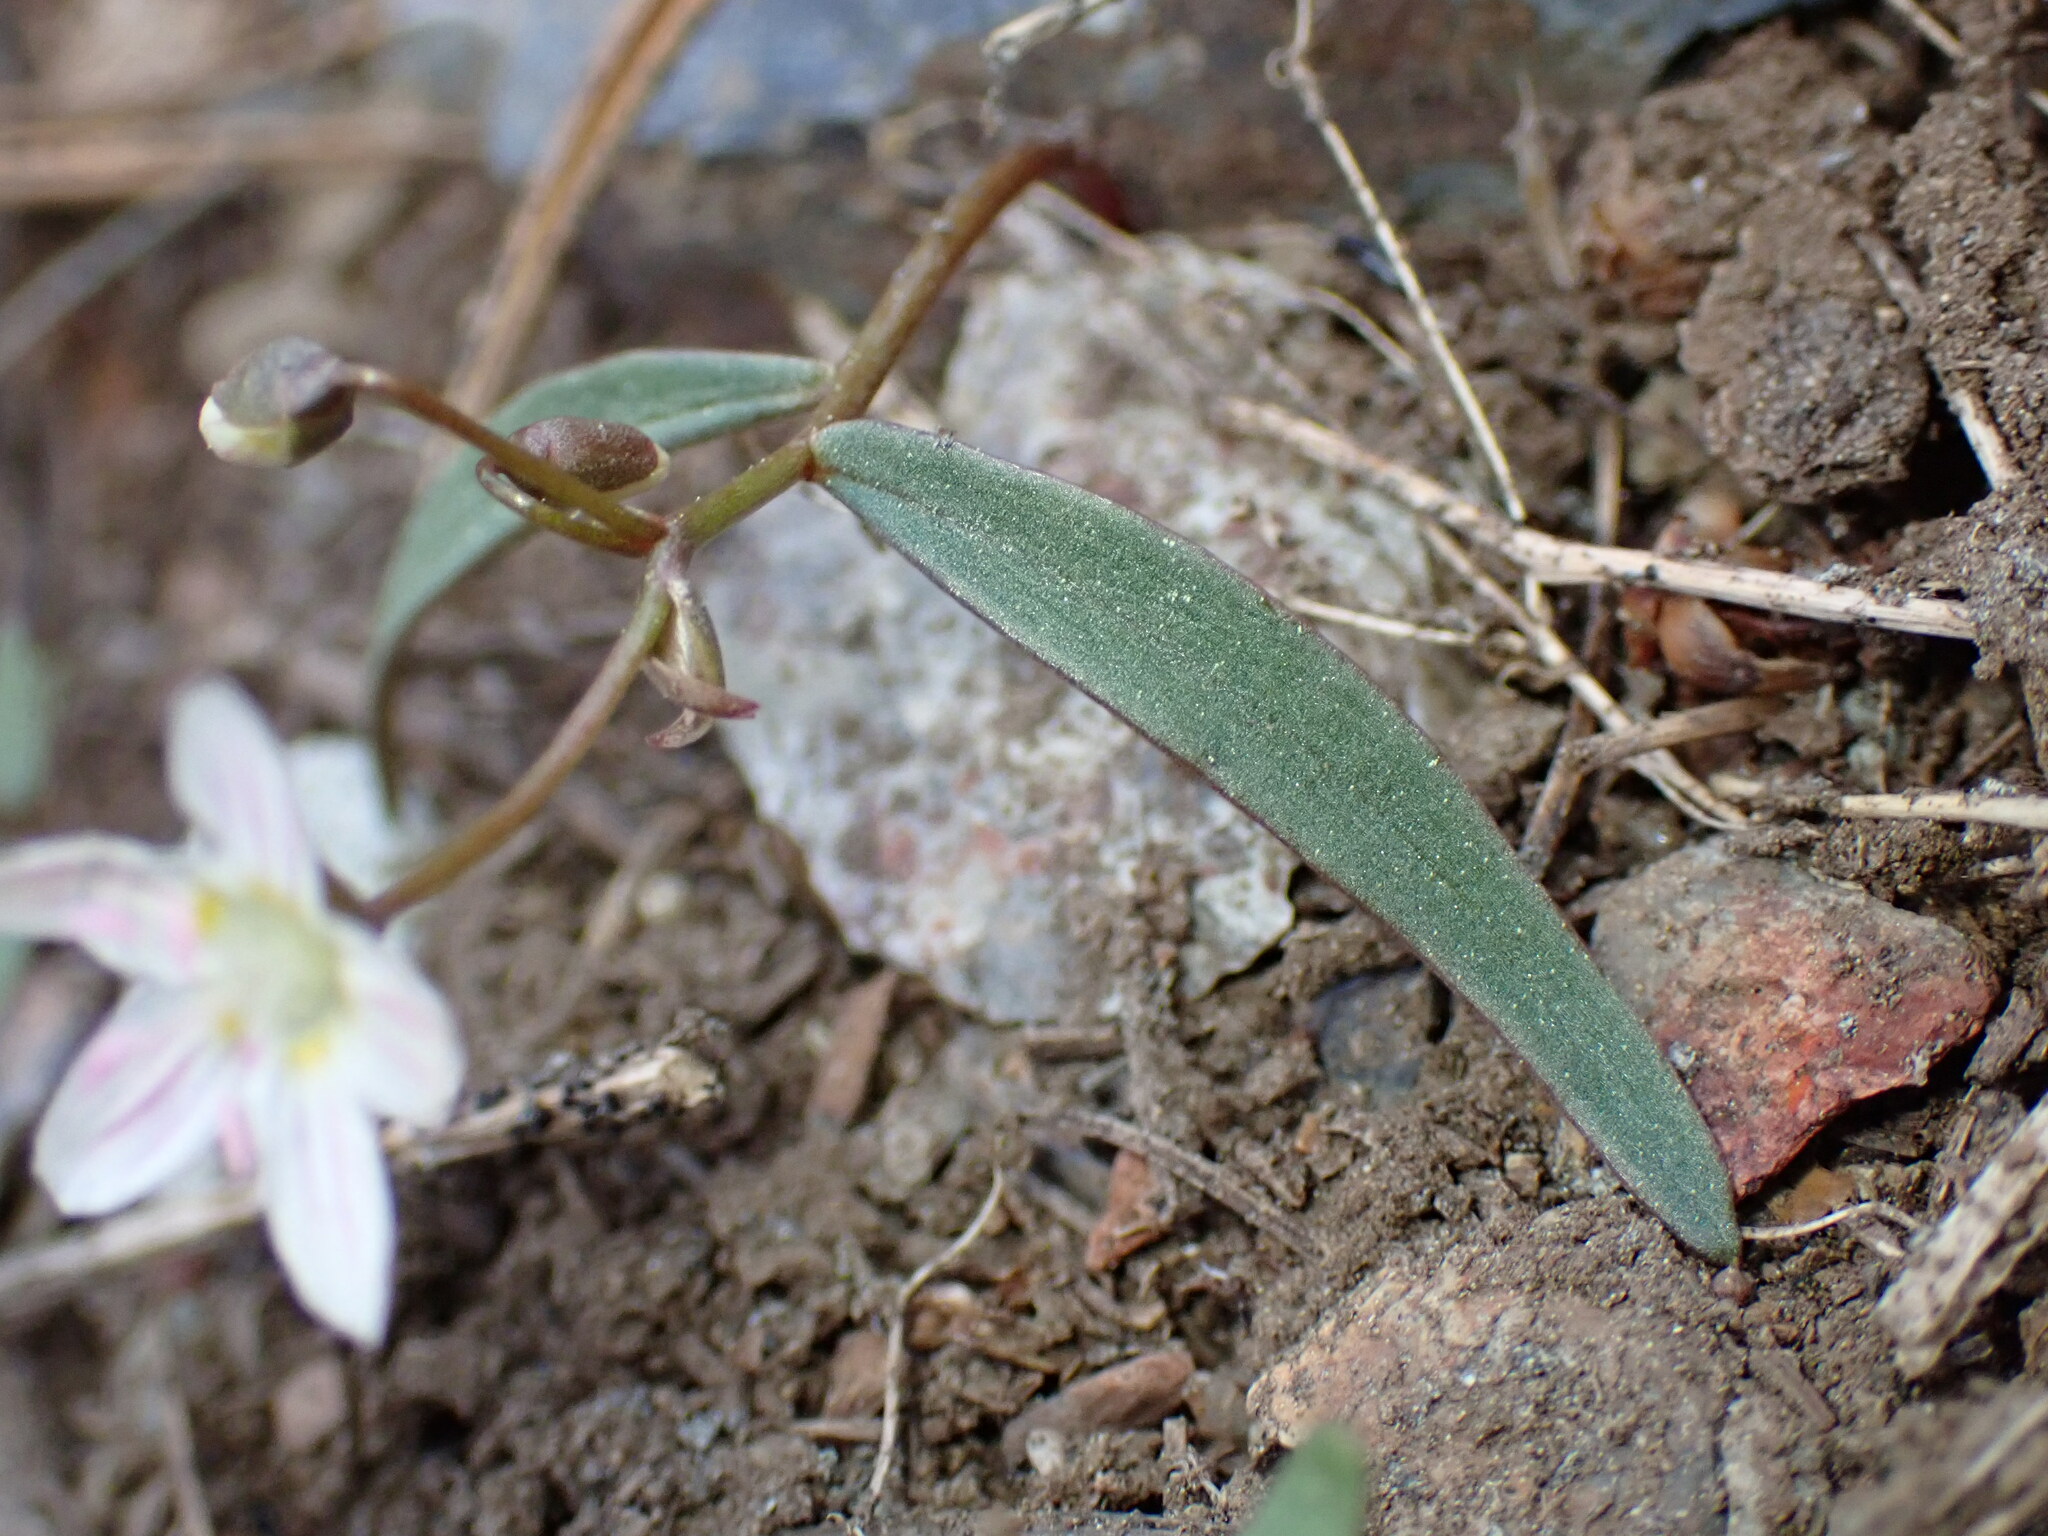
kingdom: Plantae
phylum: Tracheophyta
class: Magnoliopsida
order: Caryophyllales
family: Montiaceae
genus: Claytonia
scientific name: Claytonia lanceolata
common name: Western spring-beauty
